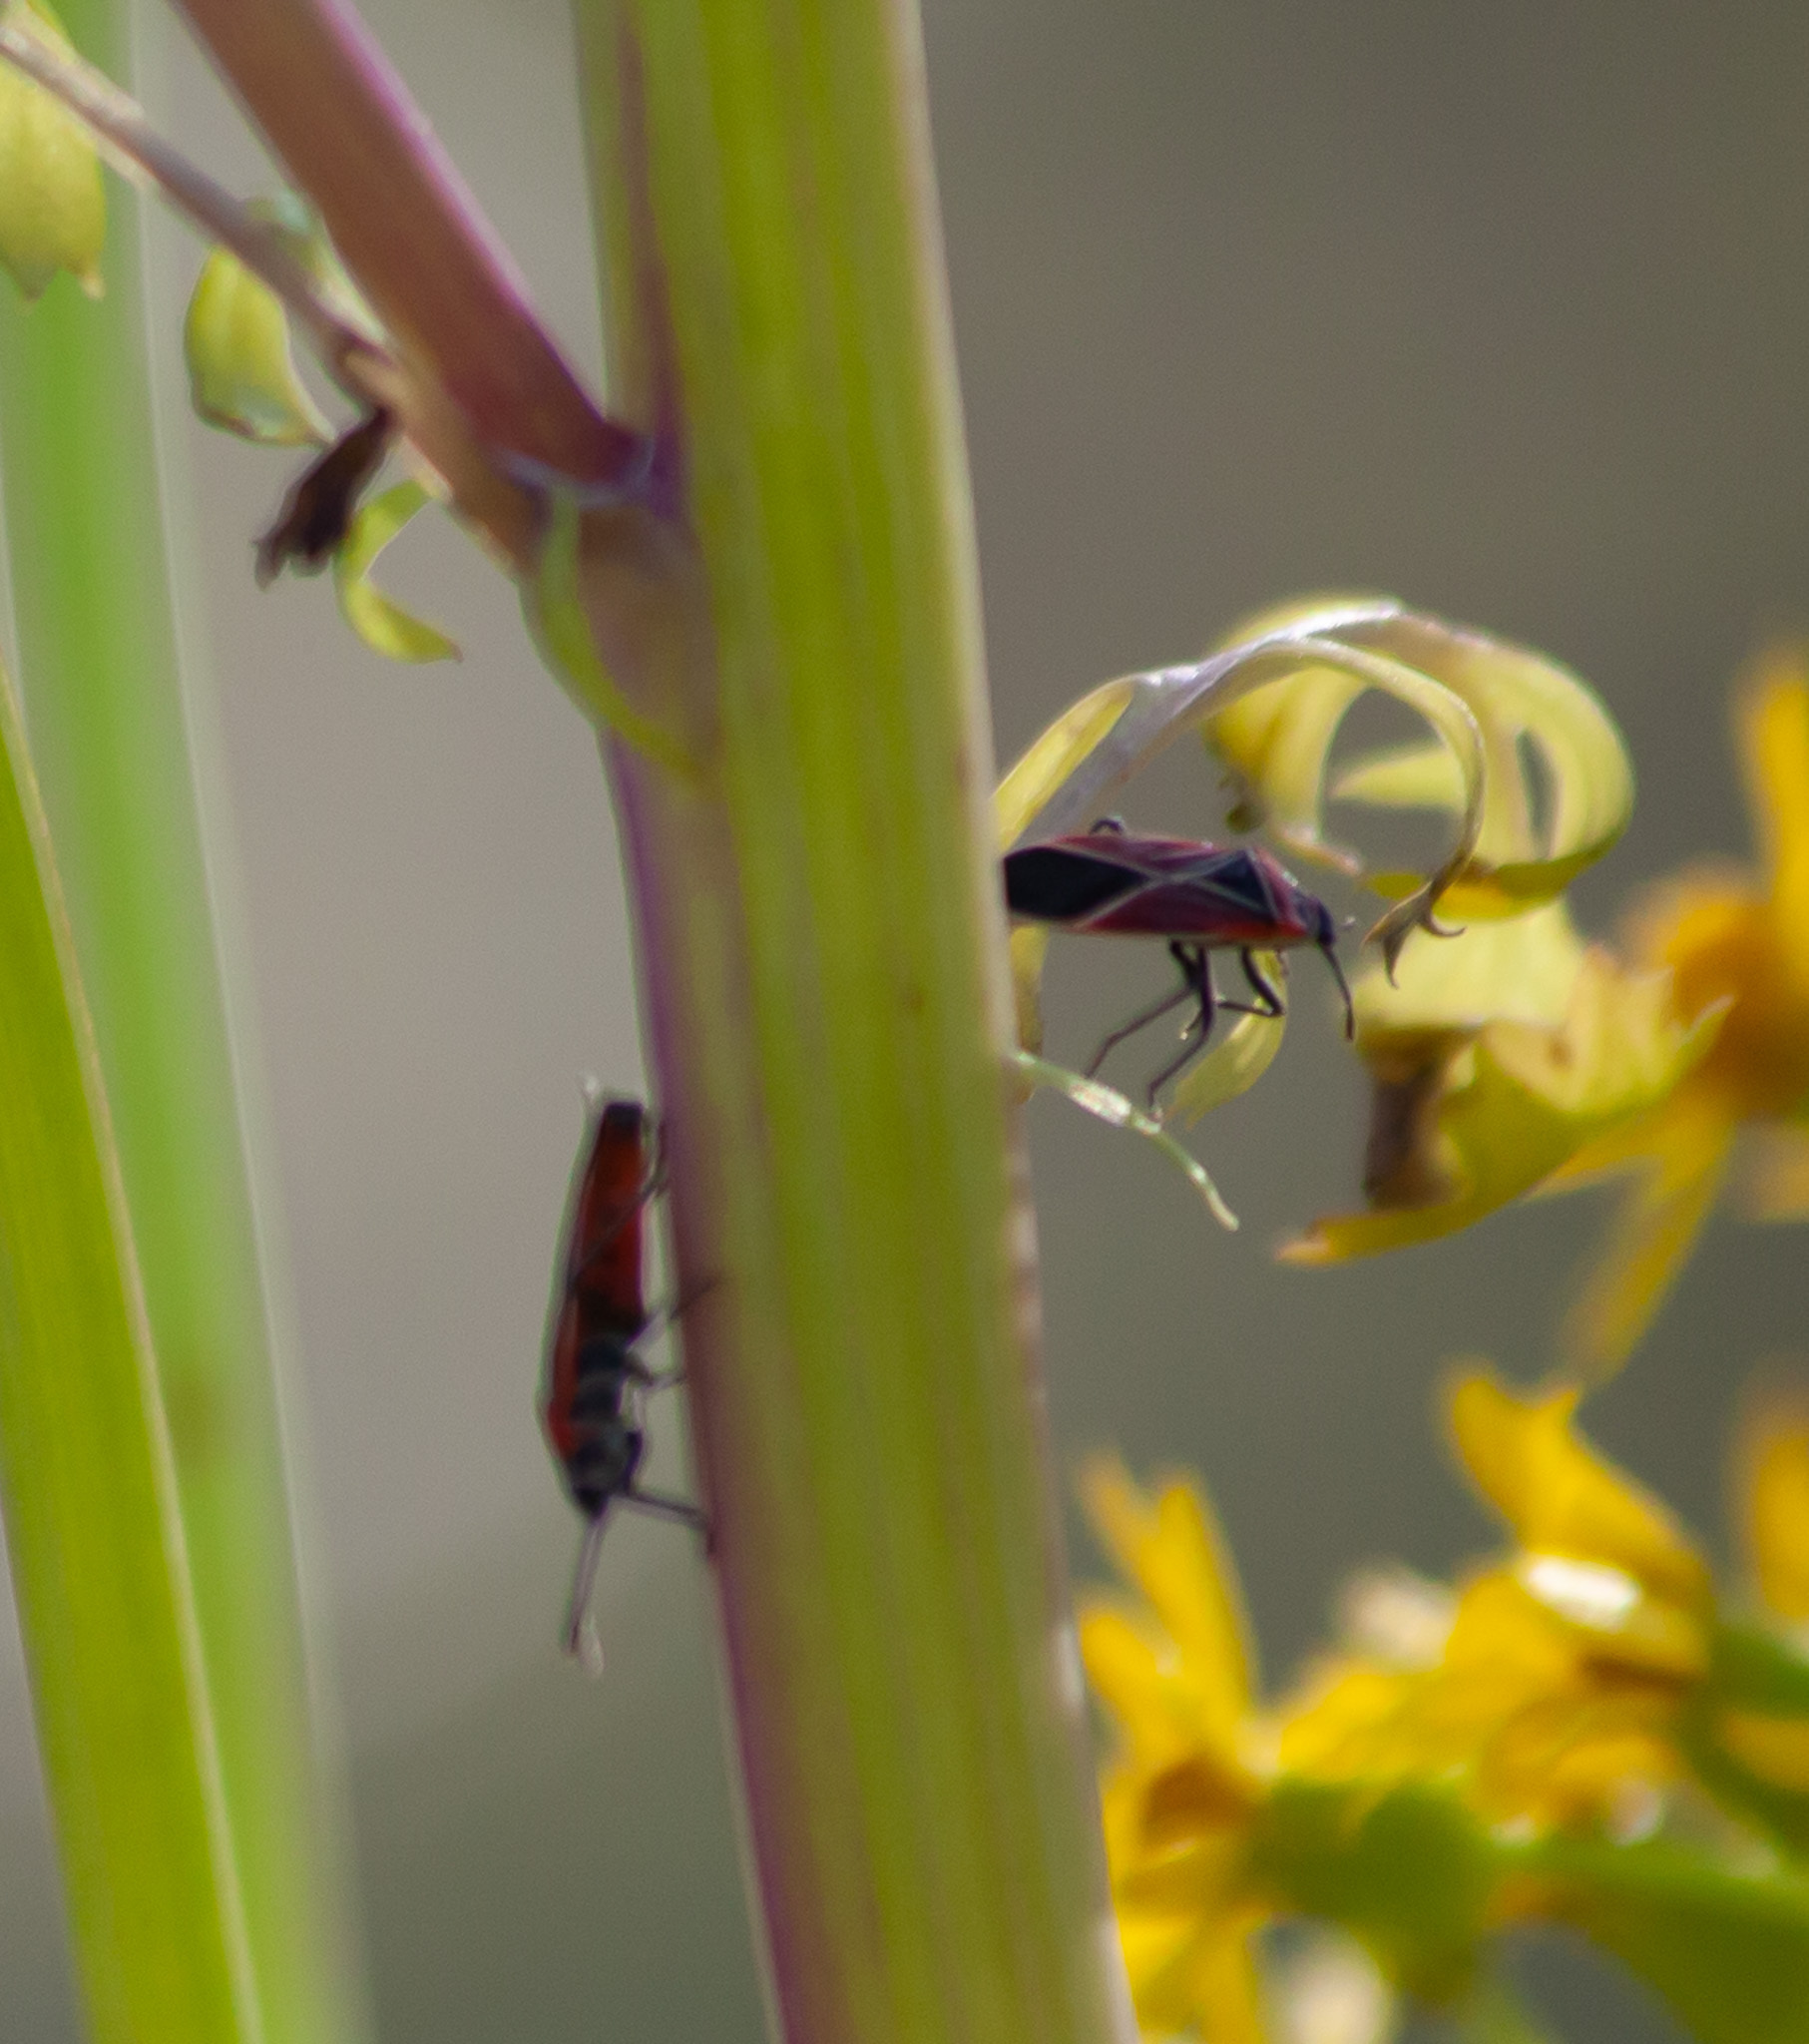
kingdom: Animalia
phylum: Arthropoda
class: Insecta
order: Hemiptera
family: Lygaeidae
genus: Neacoryphus
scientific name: Neacoryphus bicrucis
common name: Lygaeid bug
